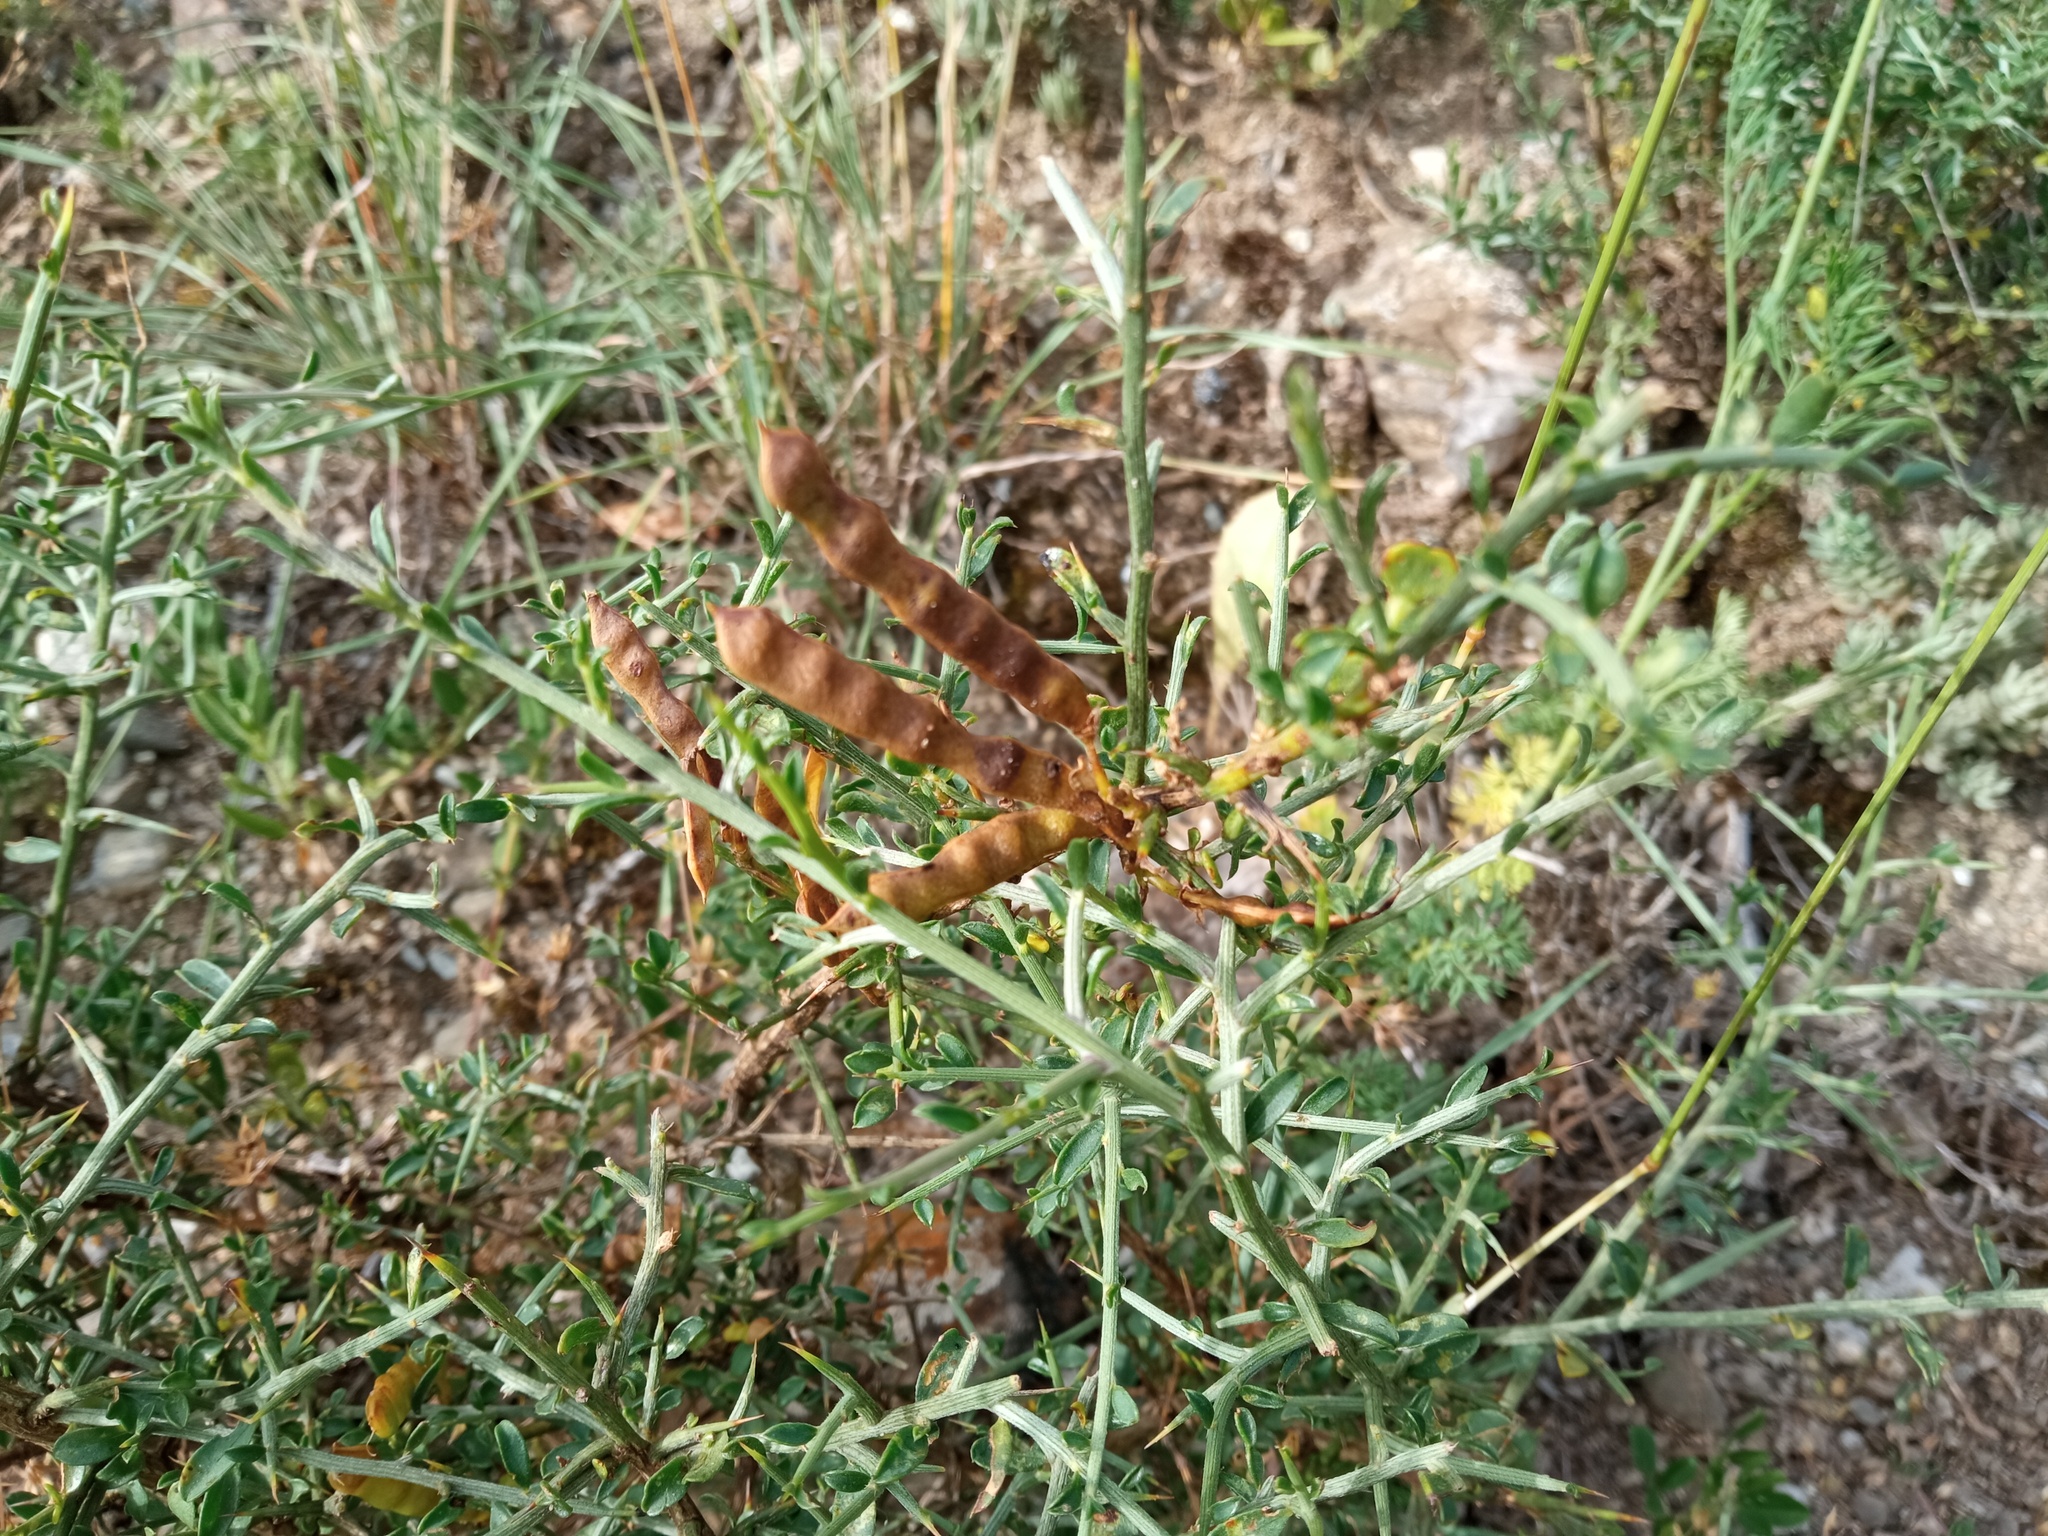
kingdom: Plantae
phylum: Tracheophyta
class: Magnoliopsida
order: Fabales
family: Fabaceae
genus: Genista
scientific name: Genista scorpius
